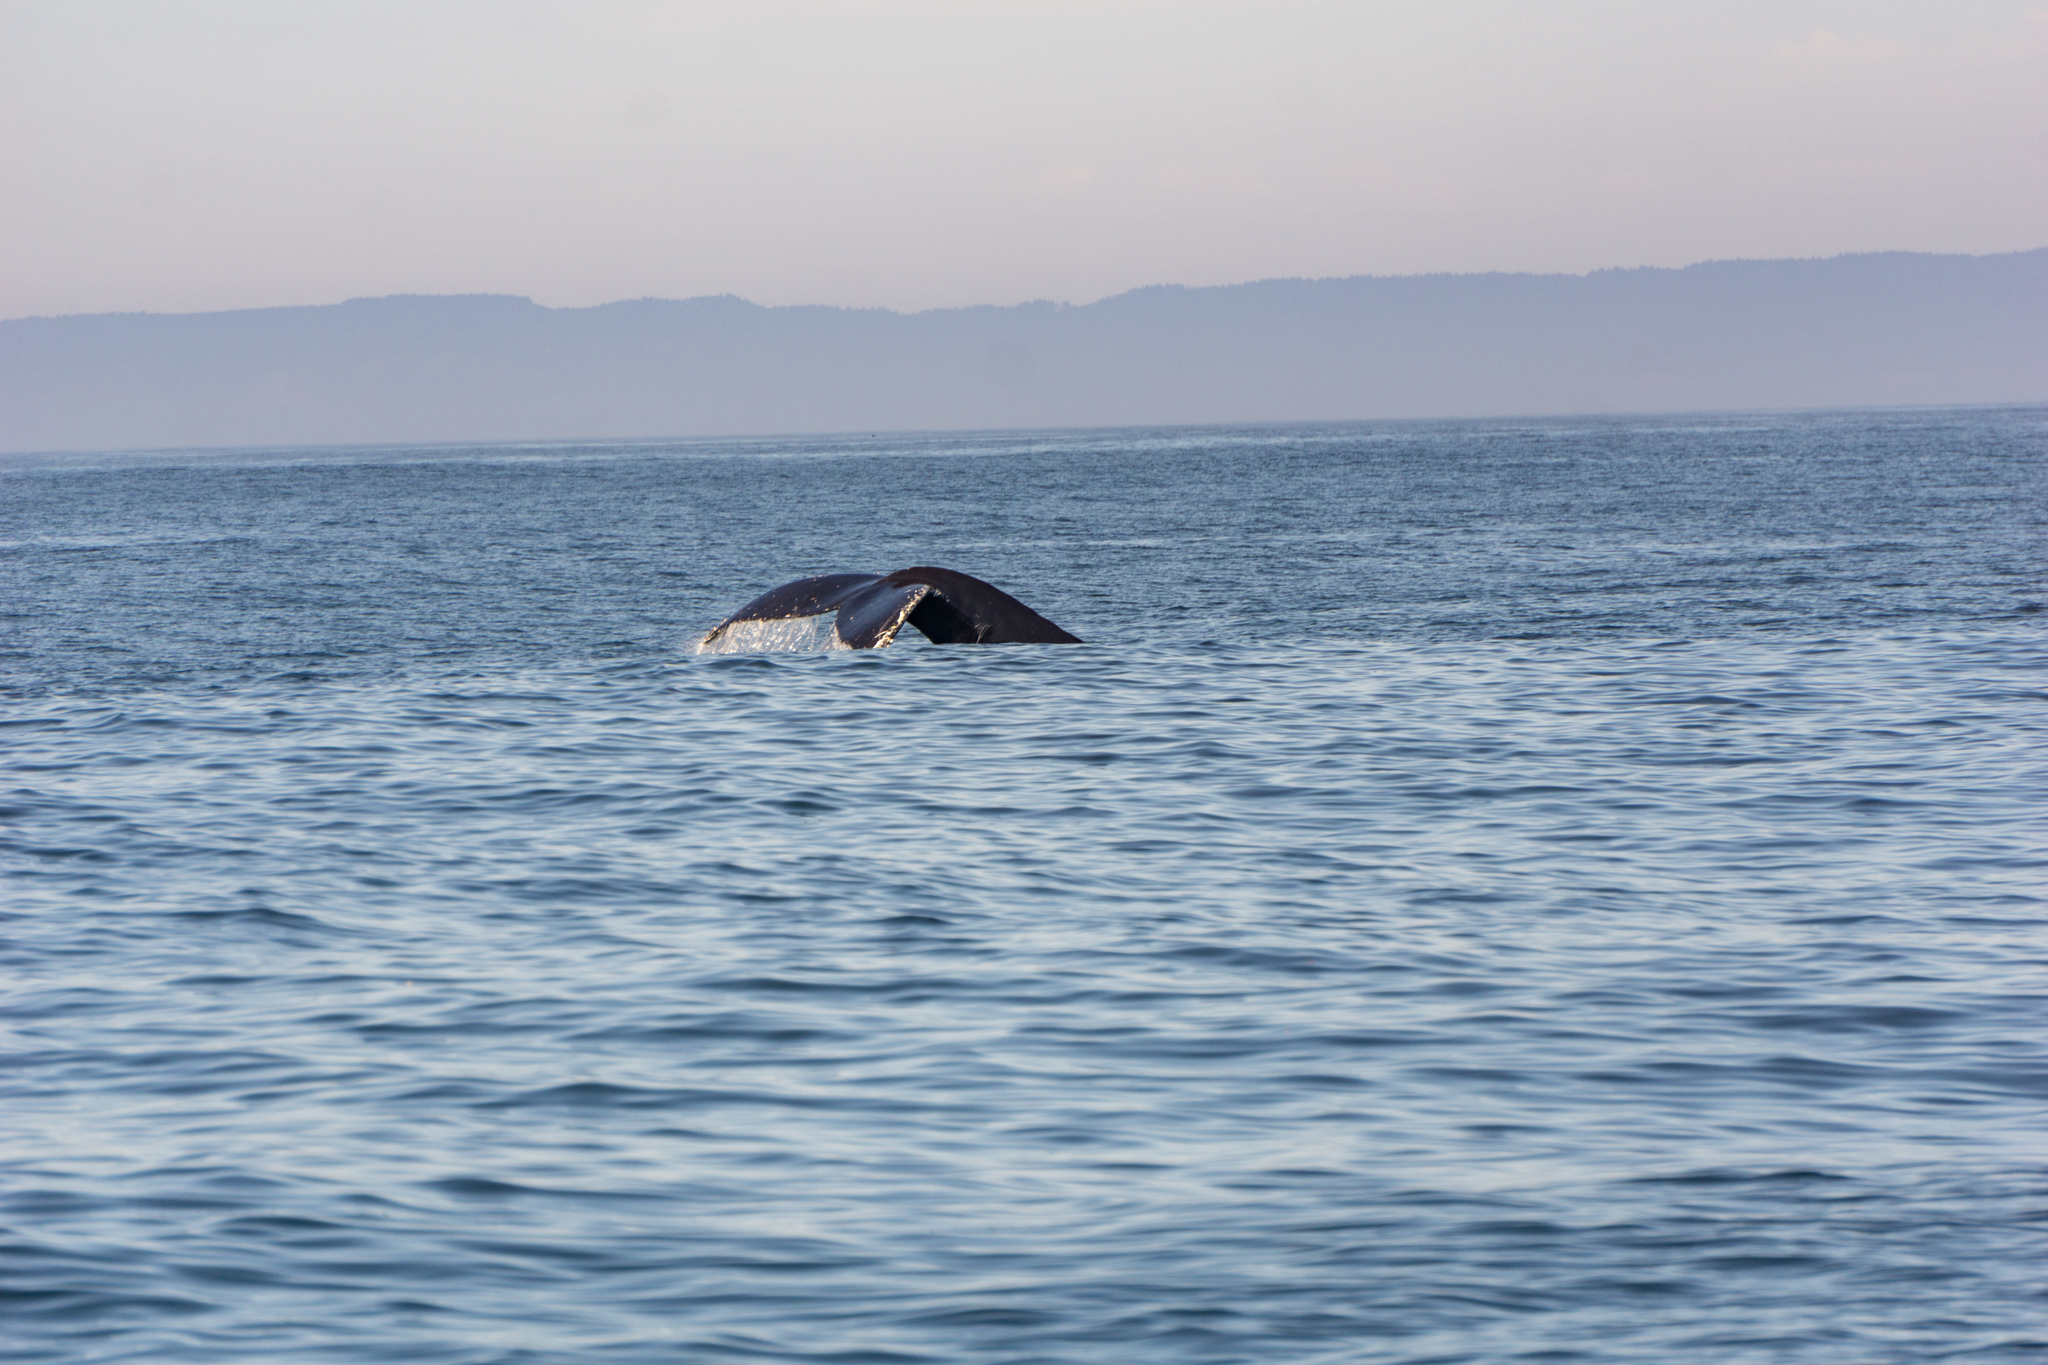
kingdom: Animalia
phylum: Chordata
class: Mammalia
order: Cetacea
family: Balaenopteridae
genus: Megaptera
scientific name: Megaptera novaeangliae
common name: Humpback whale
